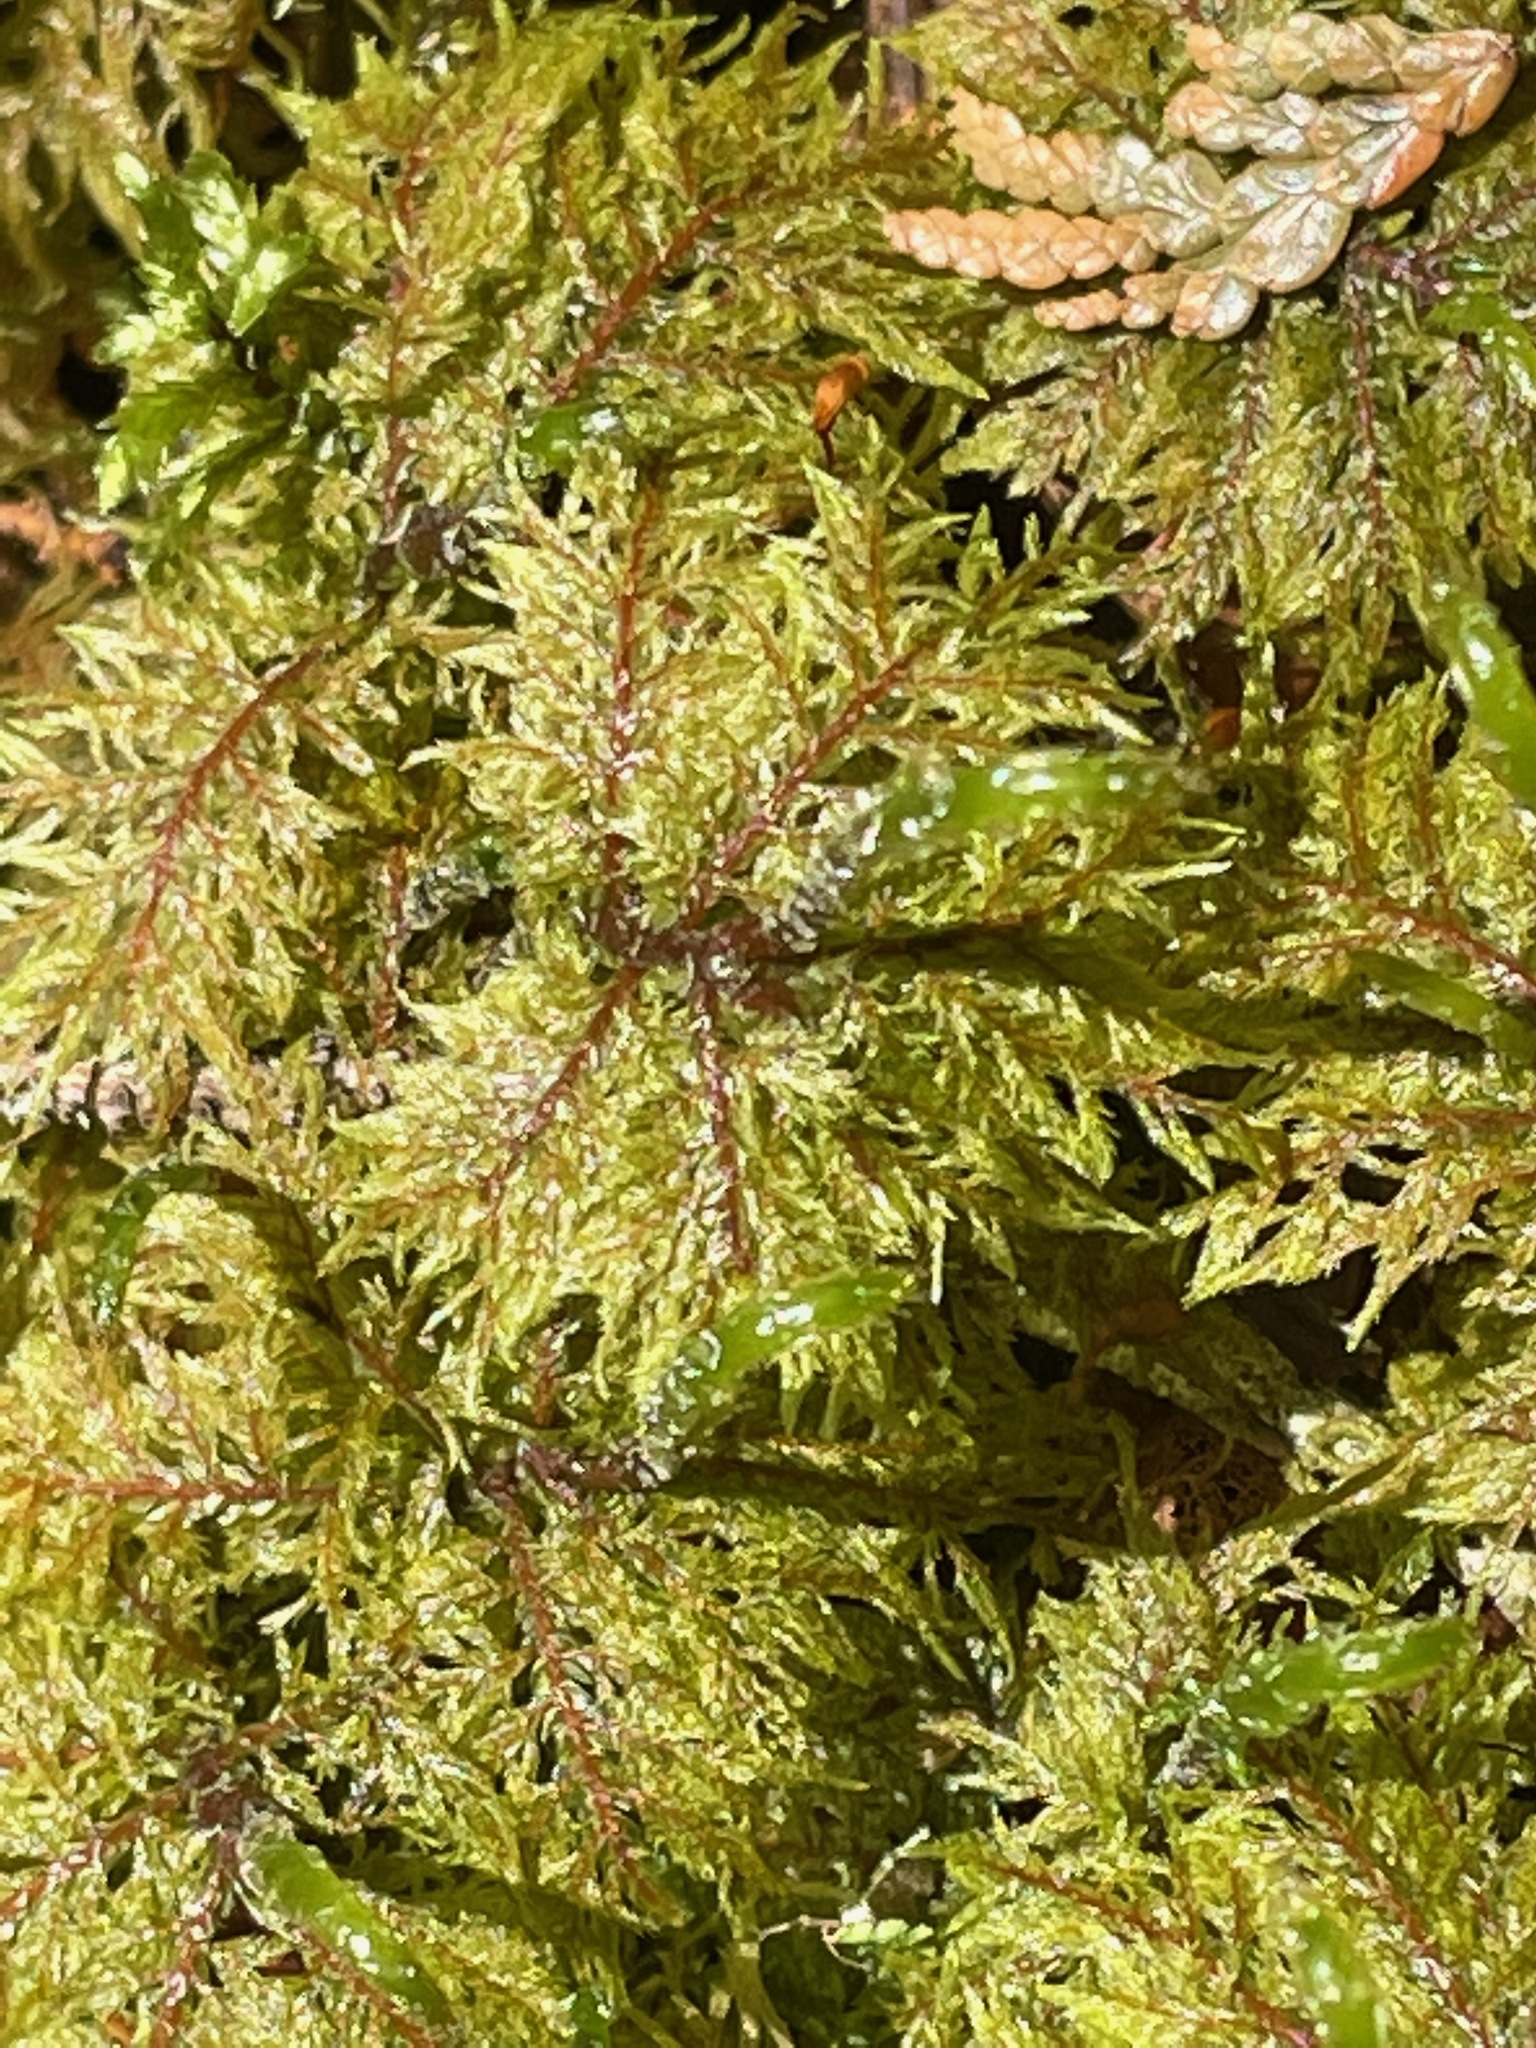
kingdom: Plantae
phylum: Bryophyta
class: Bryopsida
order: Hypnales
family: Hylocomiaceae
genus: Hylocomium
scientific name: Hylocomium splendens
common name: Stairstep moss
